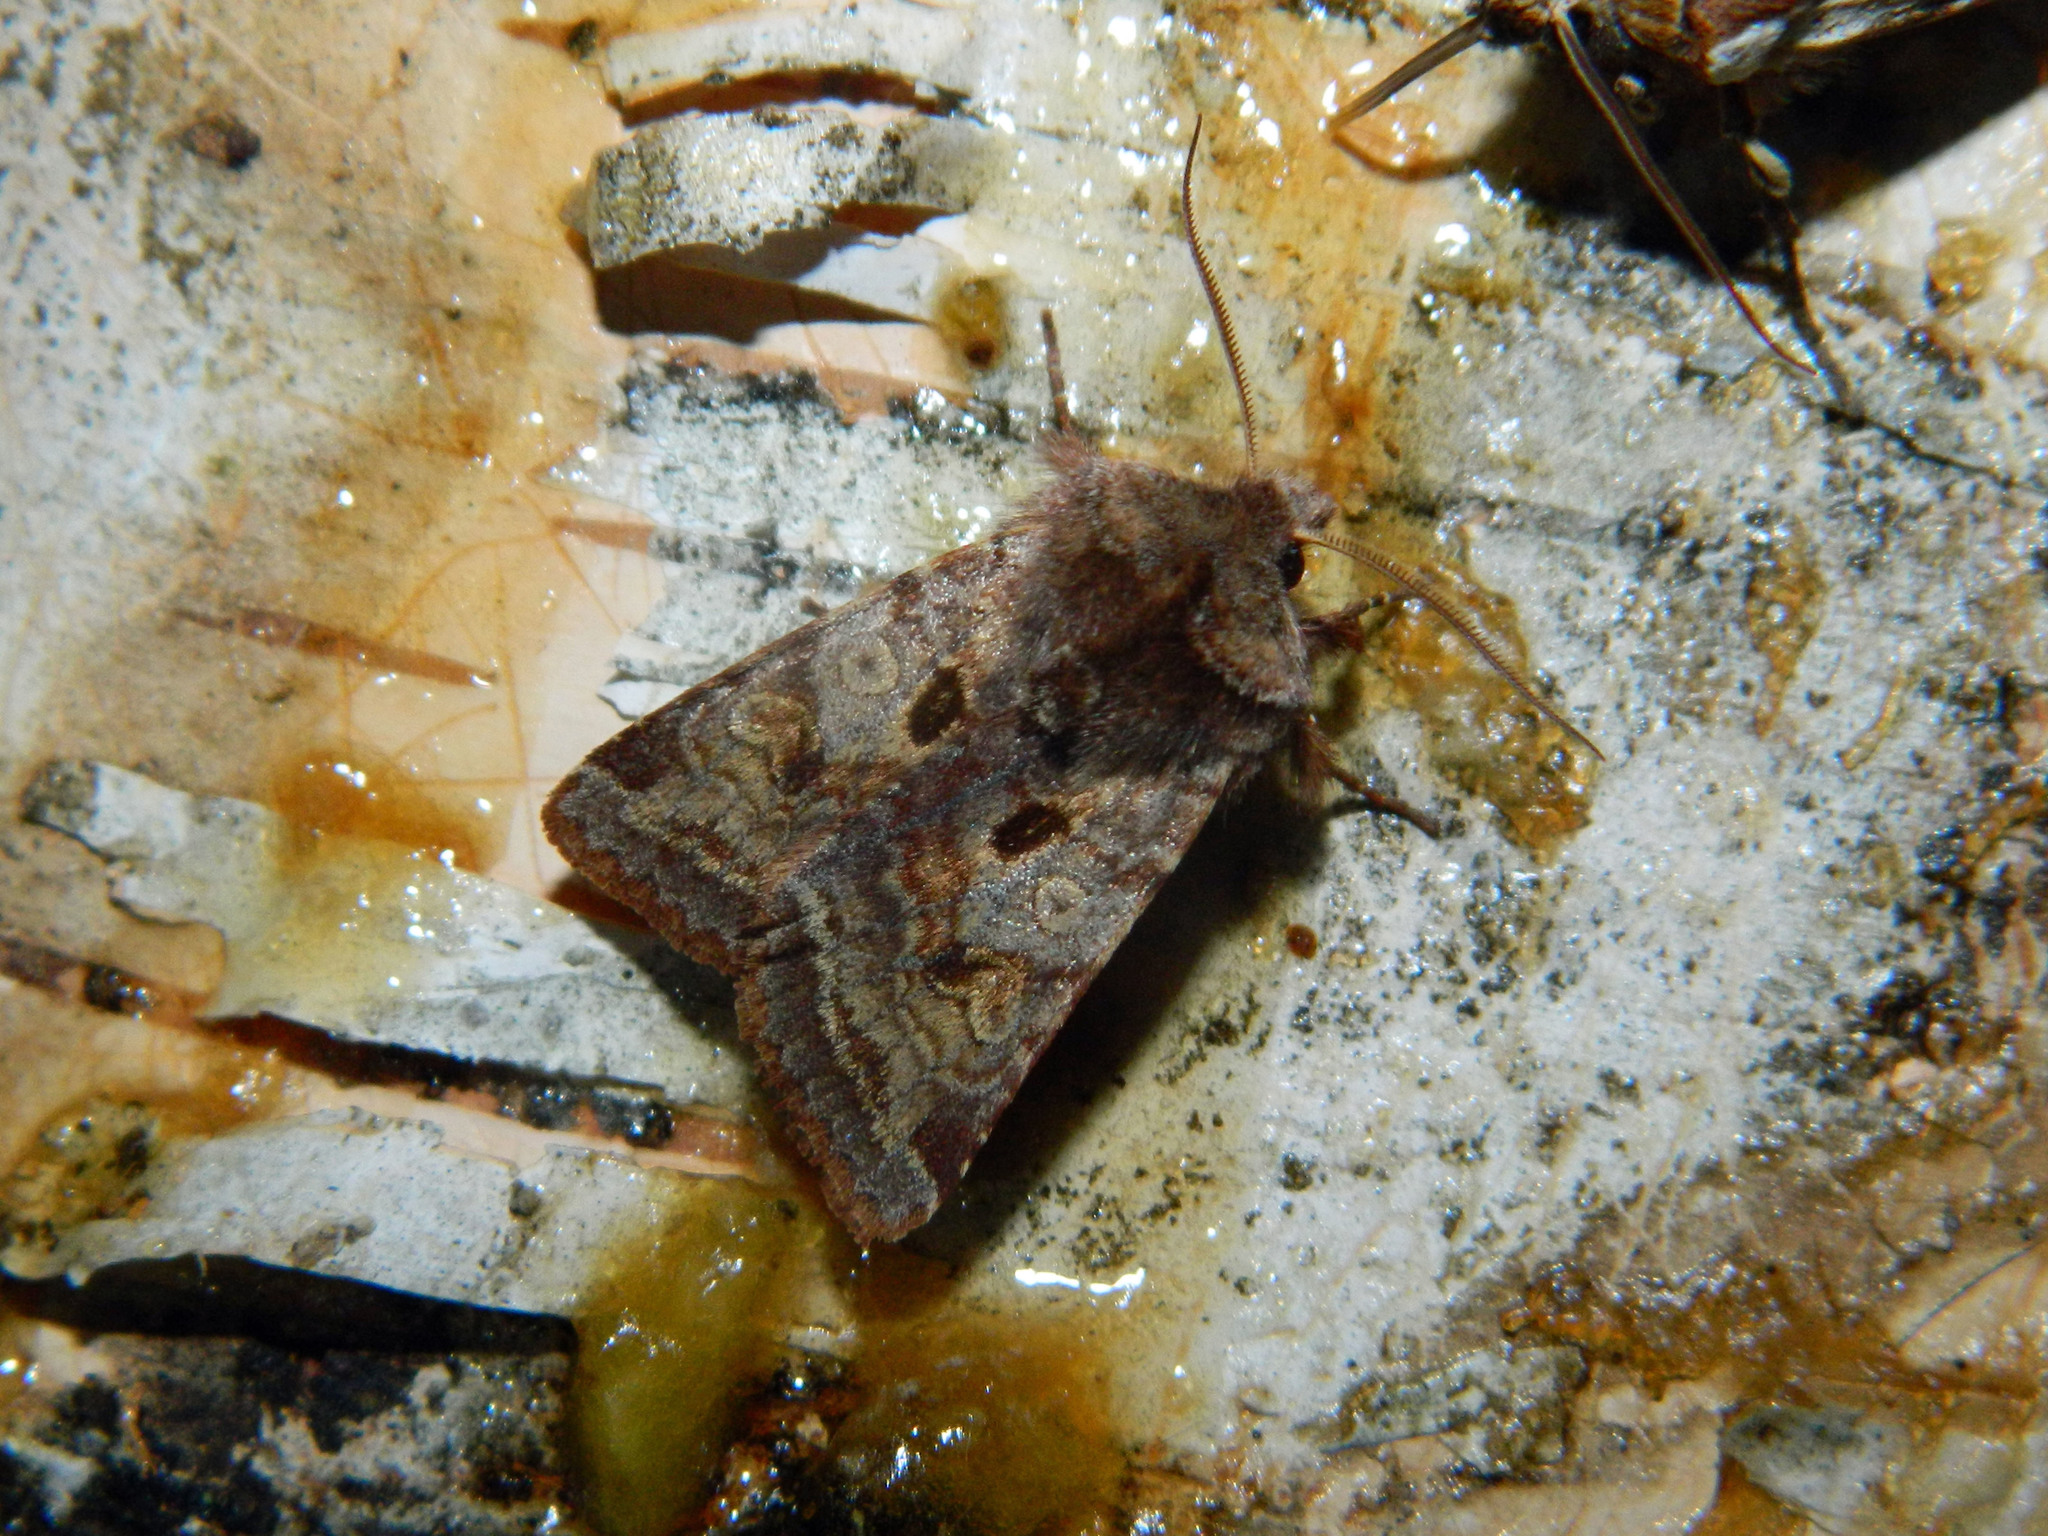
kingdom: Animalia
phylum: Arthropoda
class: Insecta
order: Lepidoptera
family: Noctuidae
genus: Cerastis
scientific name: Cerastis salicarum
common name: Willow dart
